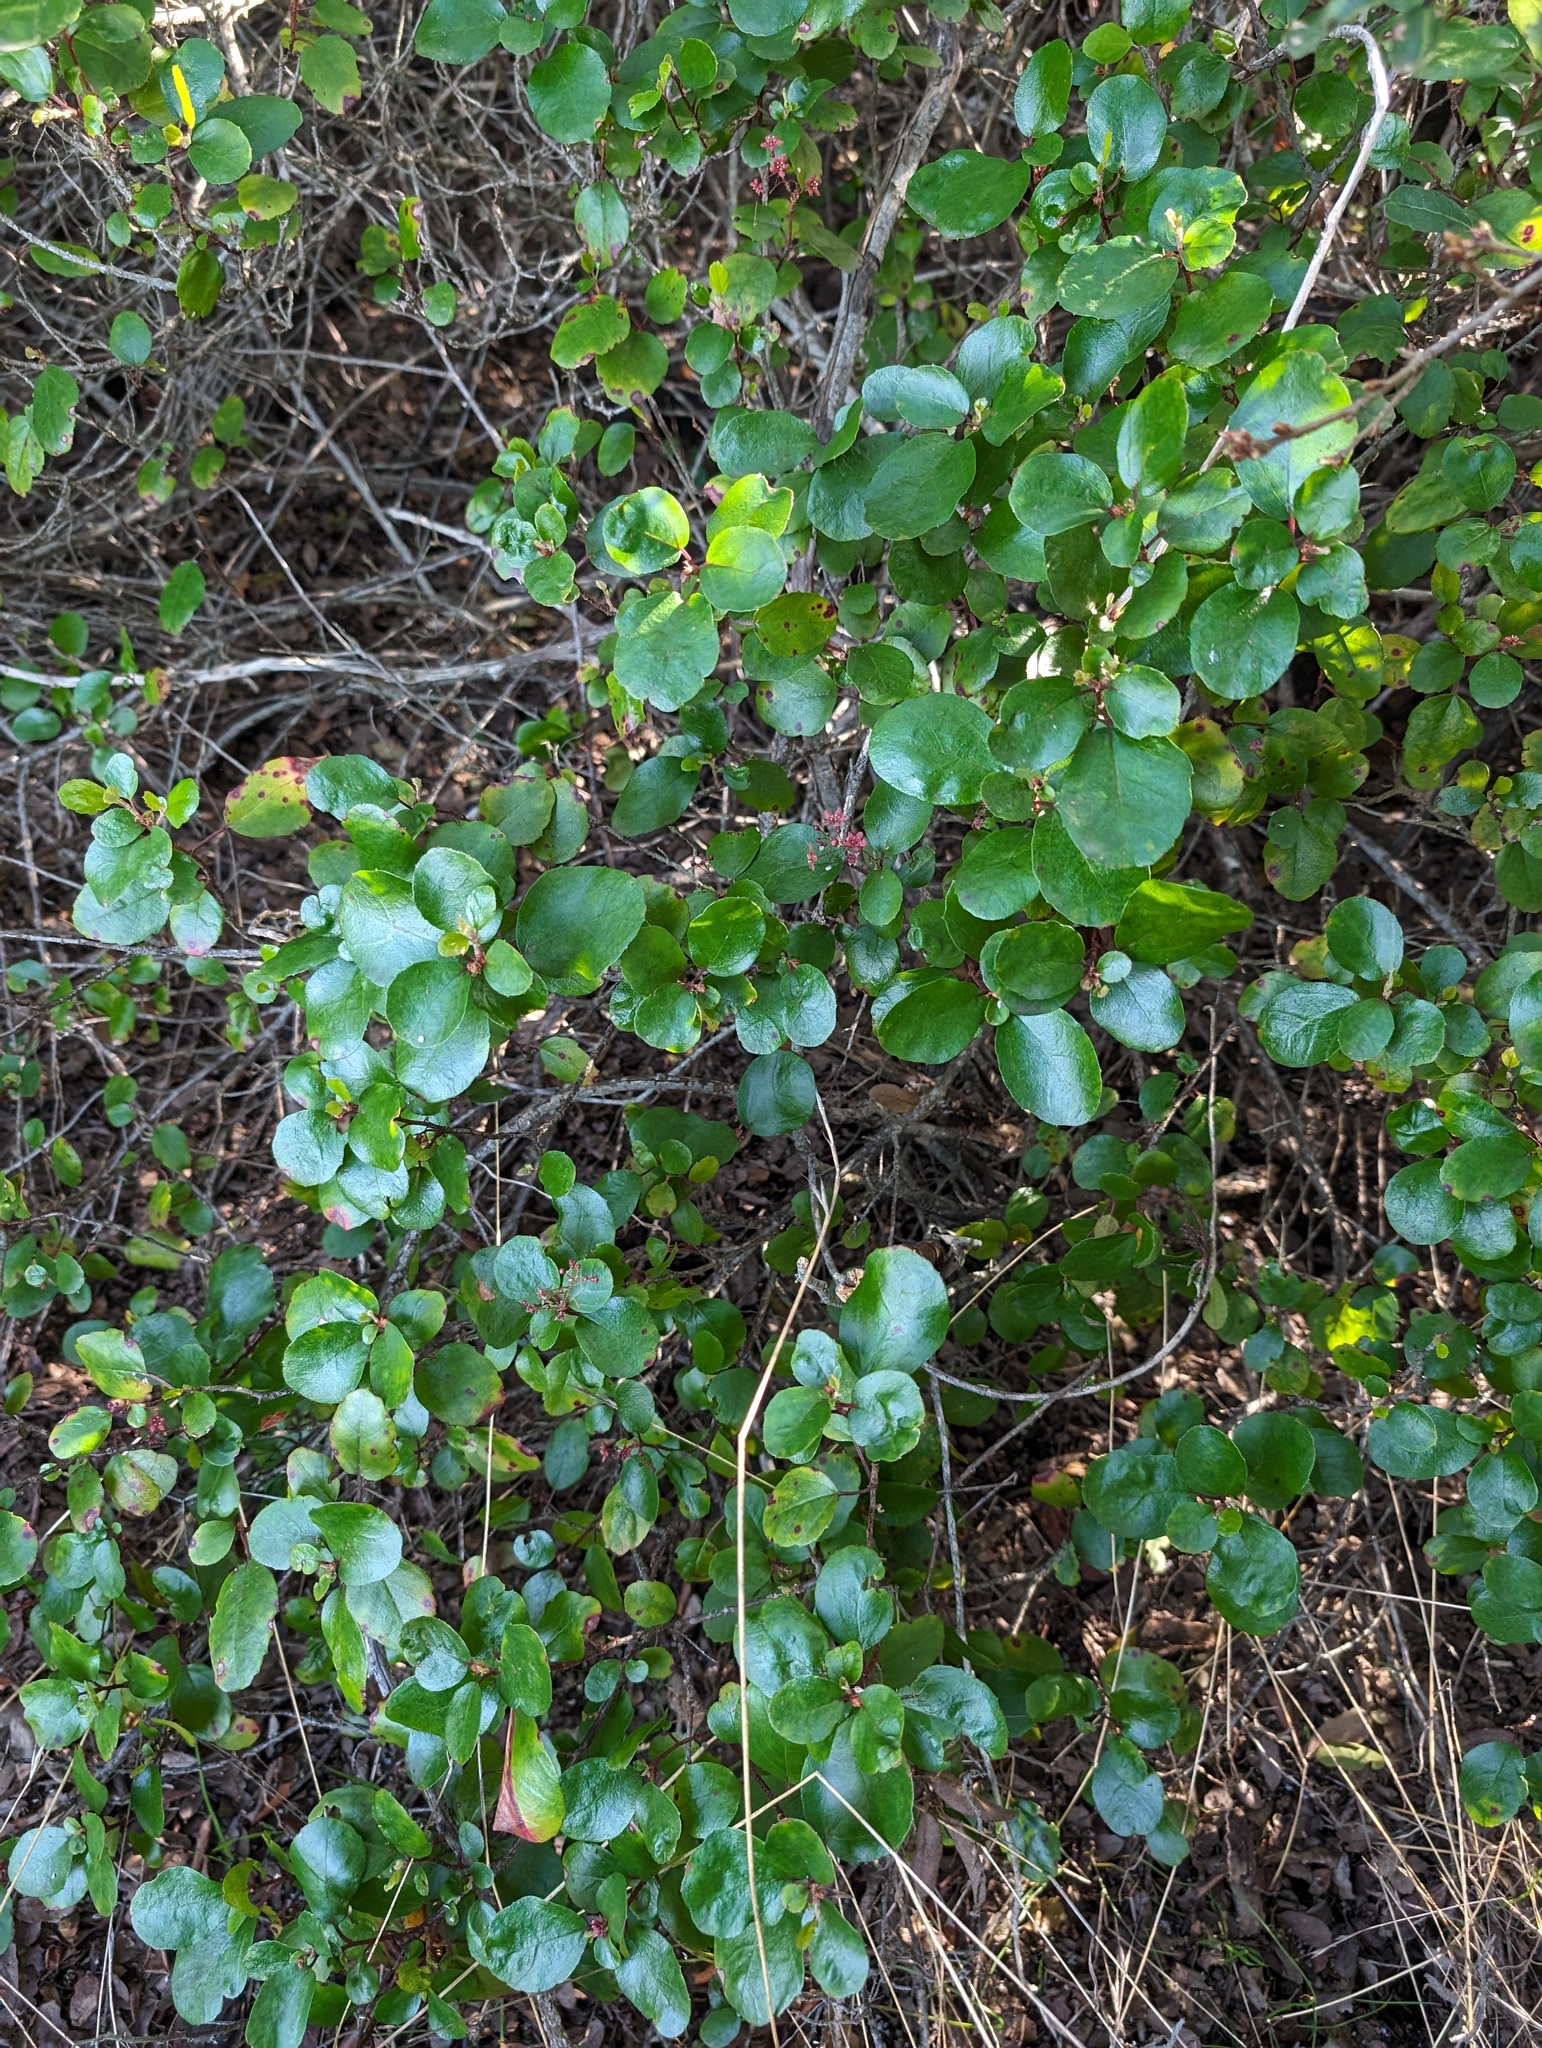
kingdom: Plantae
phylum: Tracheophyta
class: Magnoliopsida
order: Saxifragales
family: Grossulariaceae
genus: Ribes
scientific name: Ribes viburnifolium
